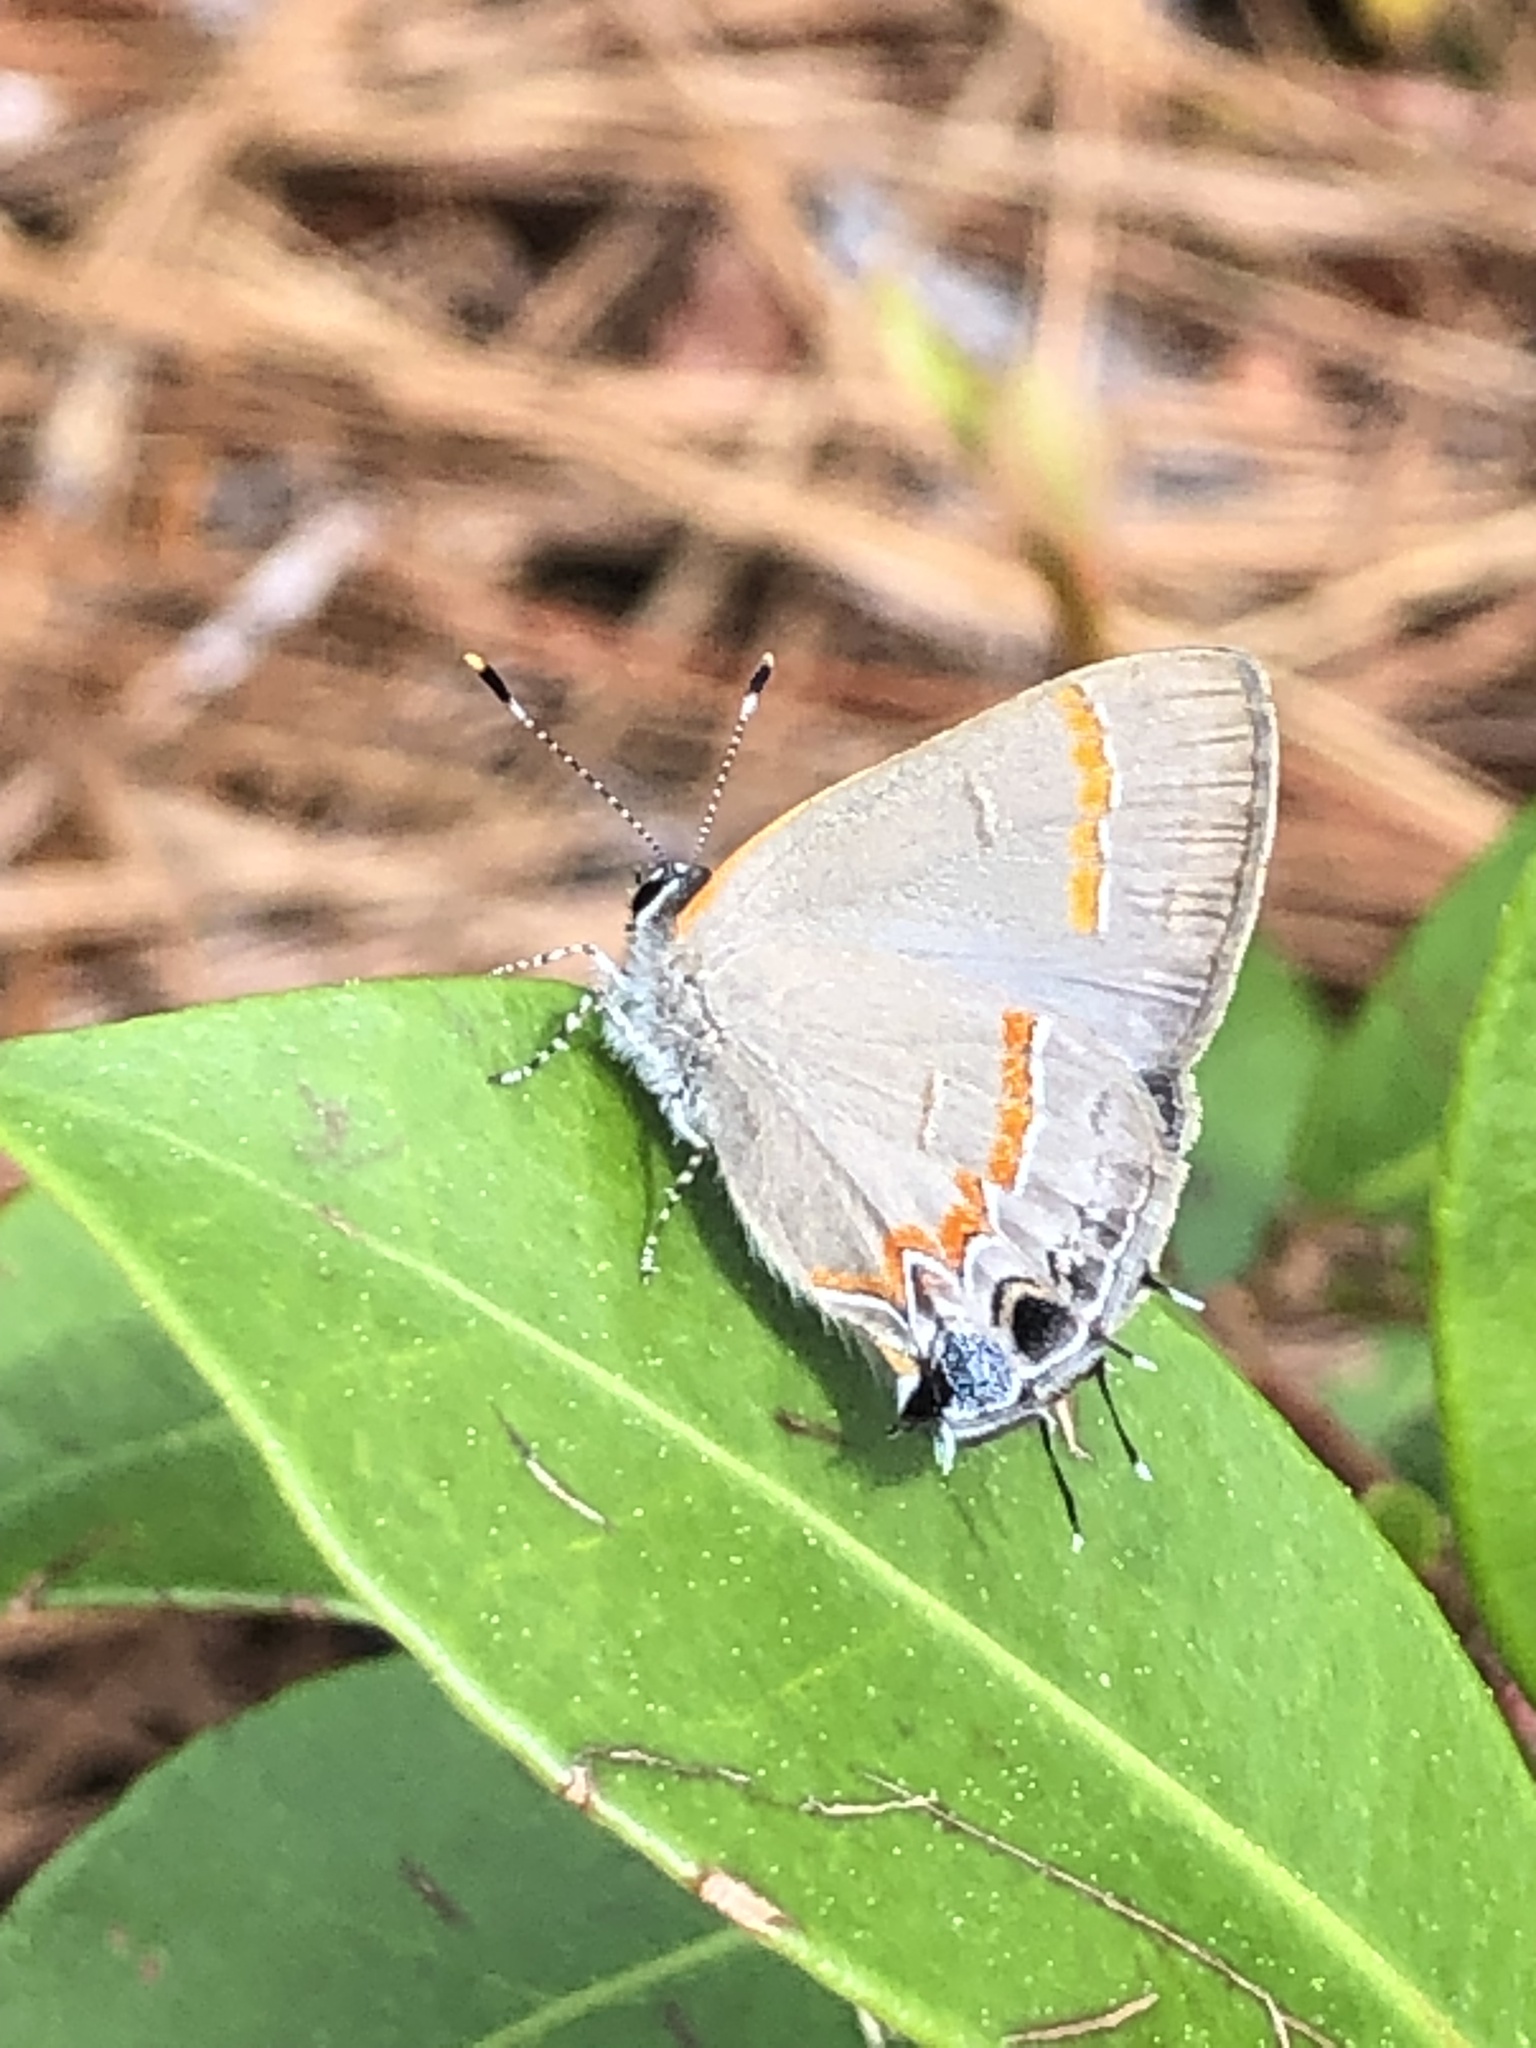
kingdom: Animalia
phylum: Arthropoda
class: Insecta
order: Lepidoptera
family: Lycaenidae
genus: Calycopis
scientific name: Calycopis cecrops
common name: Red-banded hairstreak
